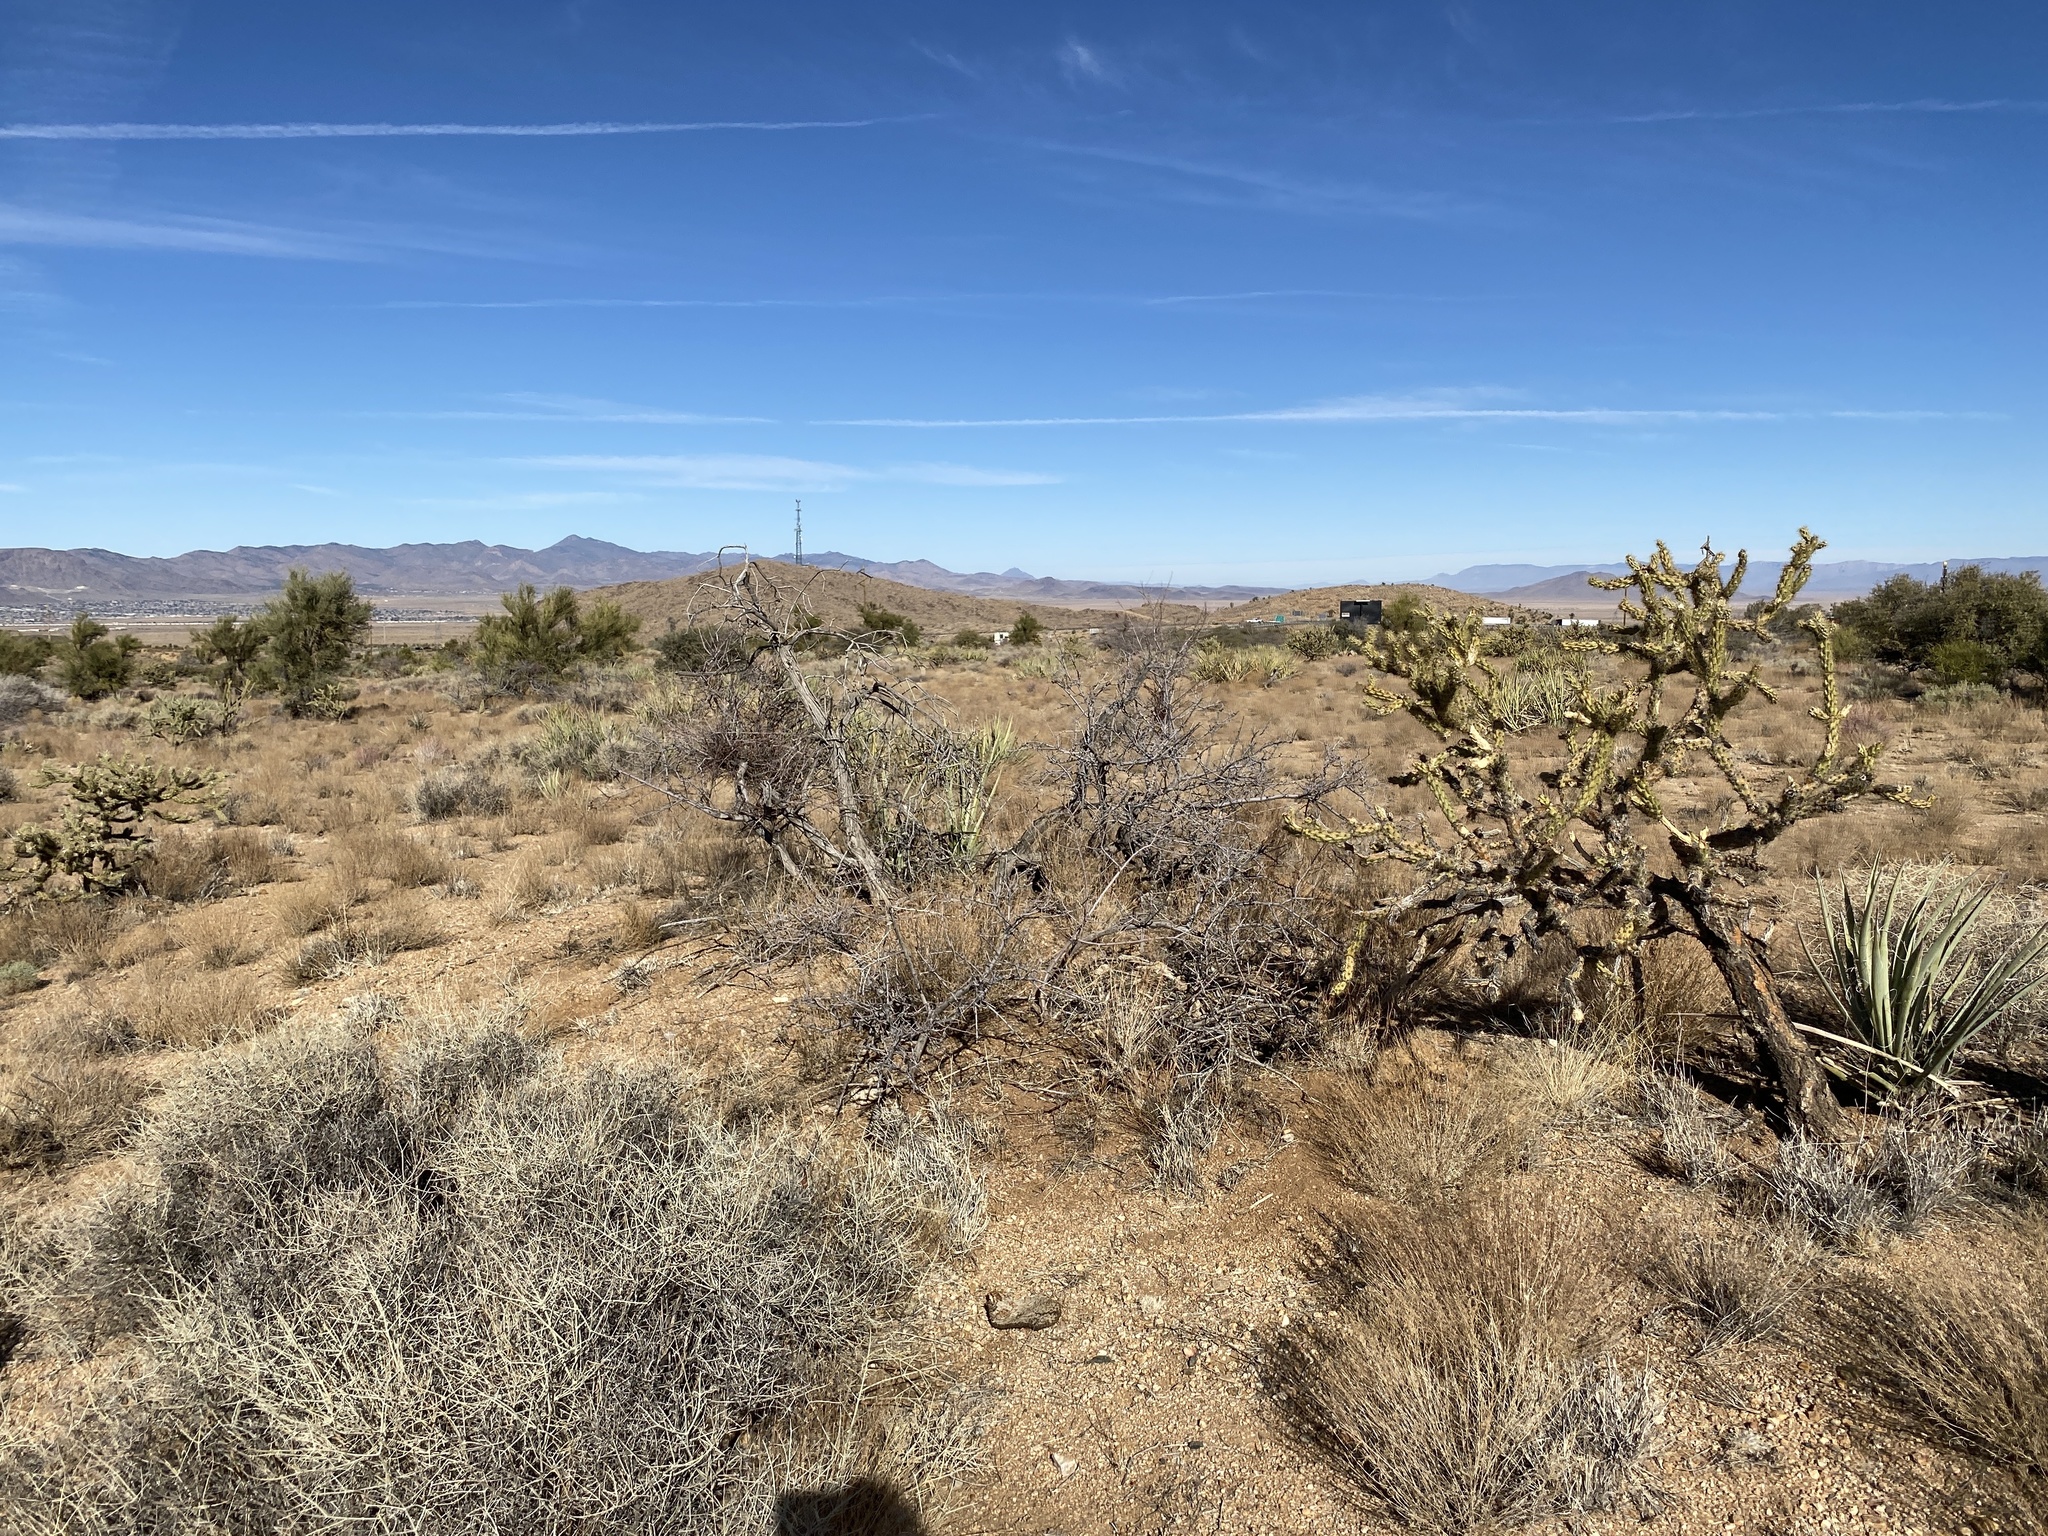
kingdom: Plantae
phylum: Tracheophyta
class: Magnoliopsida
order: Fabales
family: Fabaceae
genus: Senegalia
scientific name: Senegalia greggii
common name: Texas-mimosa
